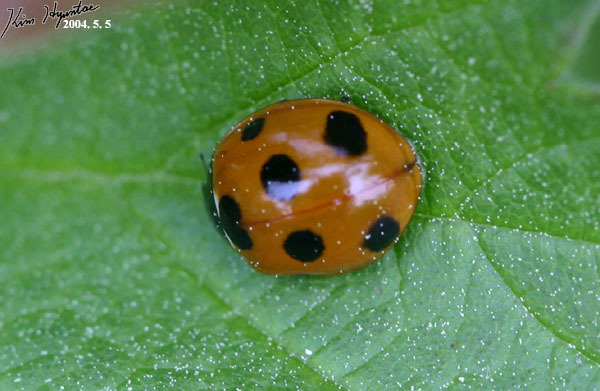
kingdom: Animalia
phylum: Arthropoda
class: Insecta
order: Coleoptera
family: Coccinellidae
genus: Coccinella
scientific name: Coccinella septempunctata
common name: Sevenspotted lady beetle
